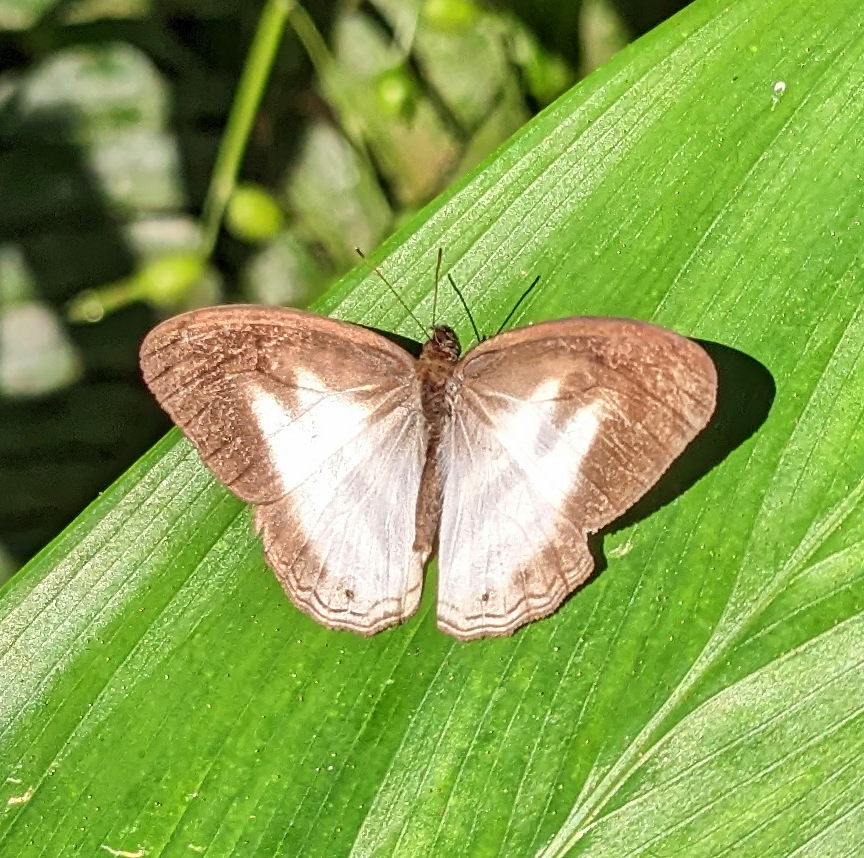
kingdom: Animalia
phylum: Arthropoda
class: Insecta
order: Lepidoptera
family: Nymphalidae
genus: Pareuptychia
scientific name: Pareuptychia hesione
